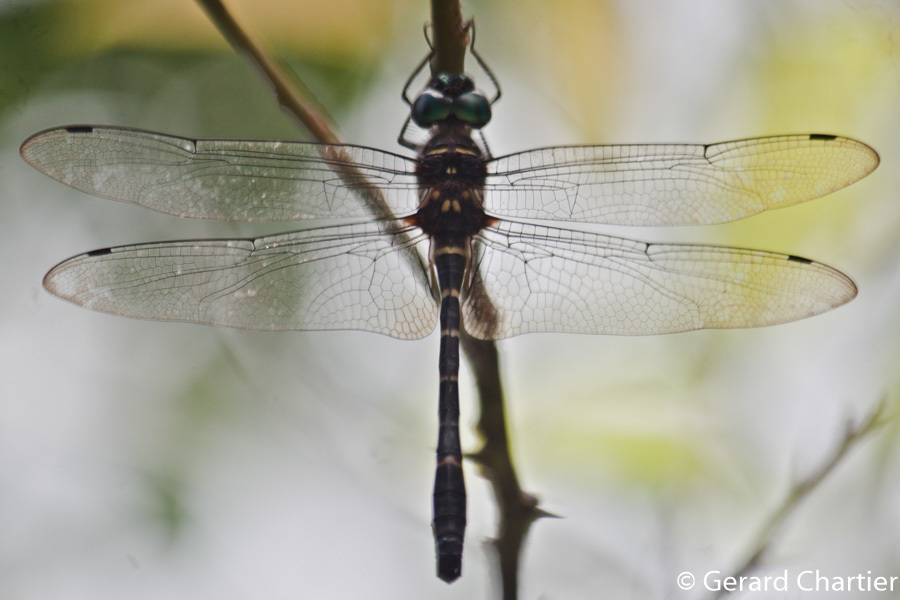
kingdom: Animalia
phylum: Arthropoda
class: Insecta
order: Odonata
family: Macromiidae
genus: Epophthalmia
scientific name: Epophthalmia vittigera
